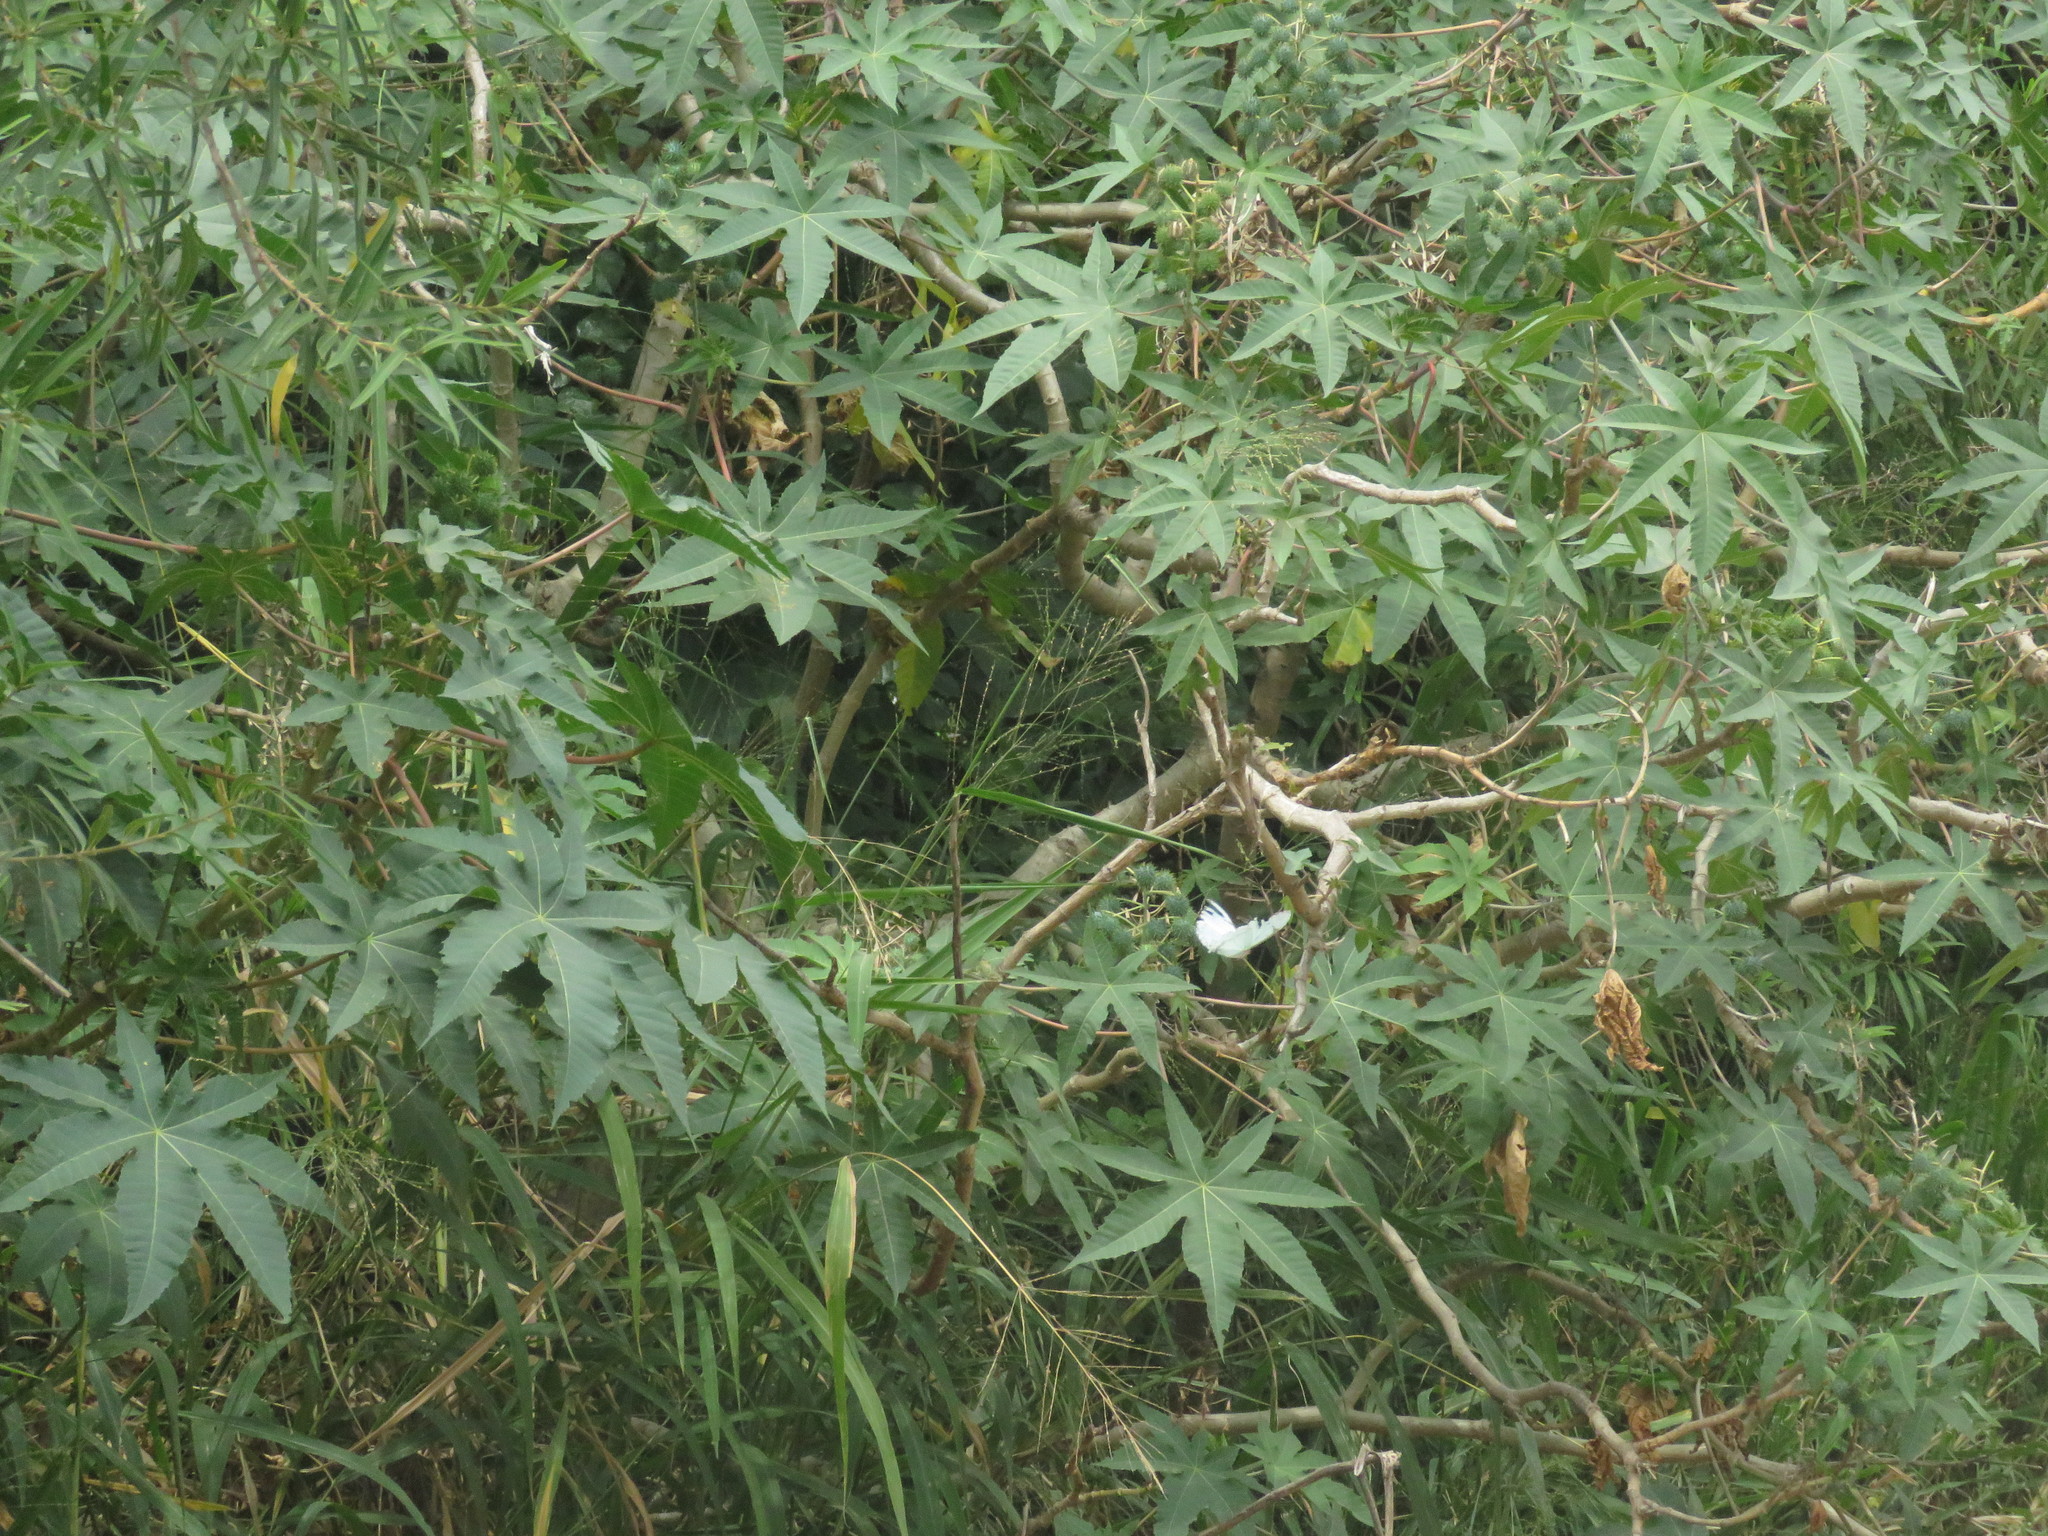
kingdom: Animalia
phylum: Arthropoda
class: Insecta
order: Lepidoptera
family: Nymphalidae
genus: Morpho
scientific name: Morpho epistrophus
